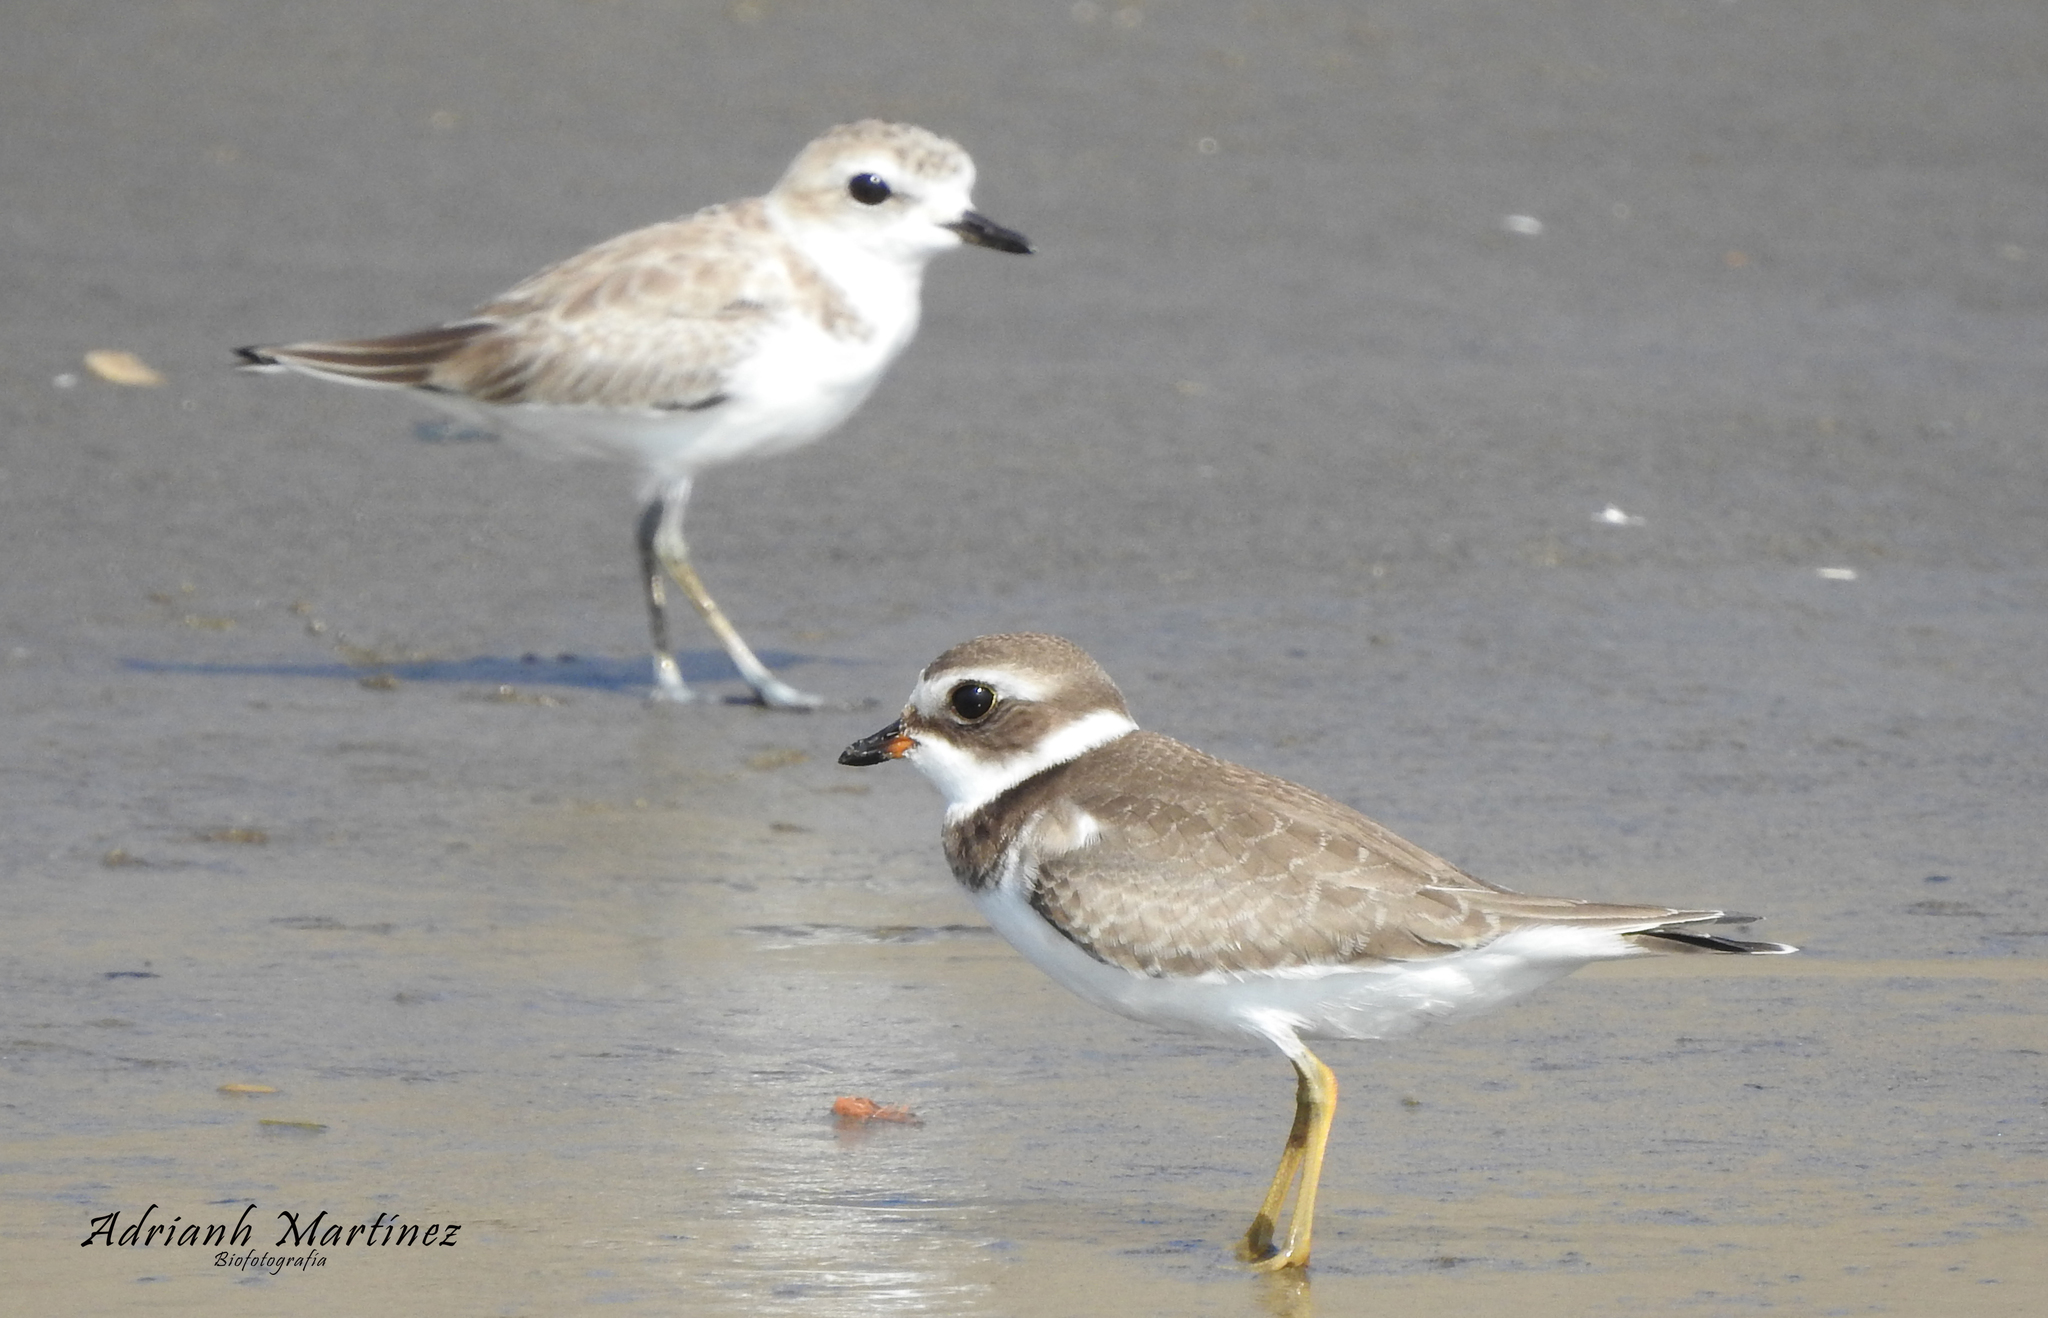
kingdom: Animalia
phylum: Chordata
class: Aves
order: Charadriiformes
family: Charadriidae
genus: Charadrius
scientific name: Charadrius semipalmatus
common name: Semipalmated plover
